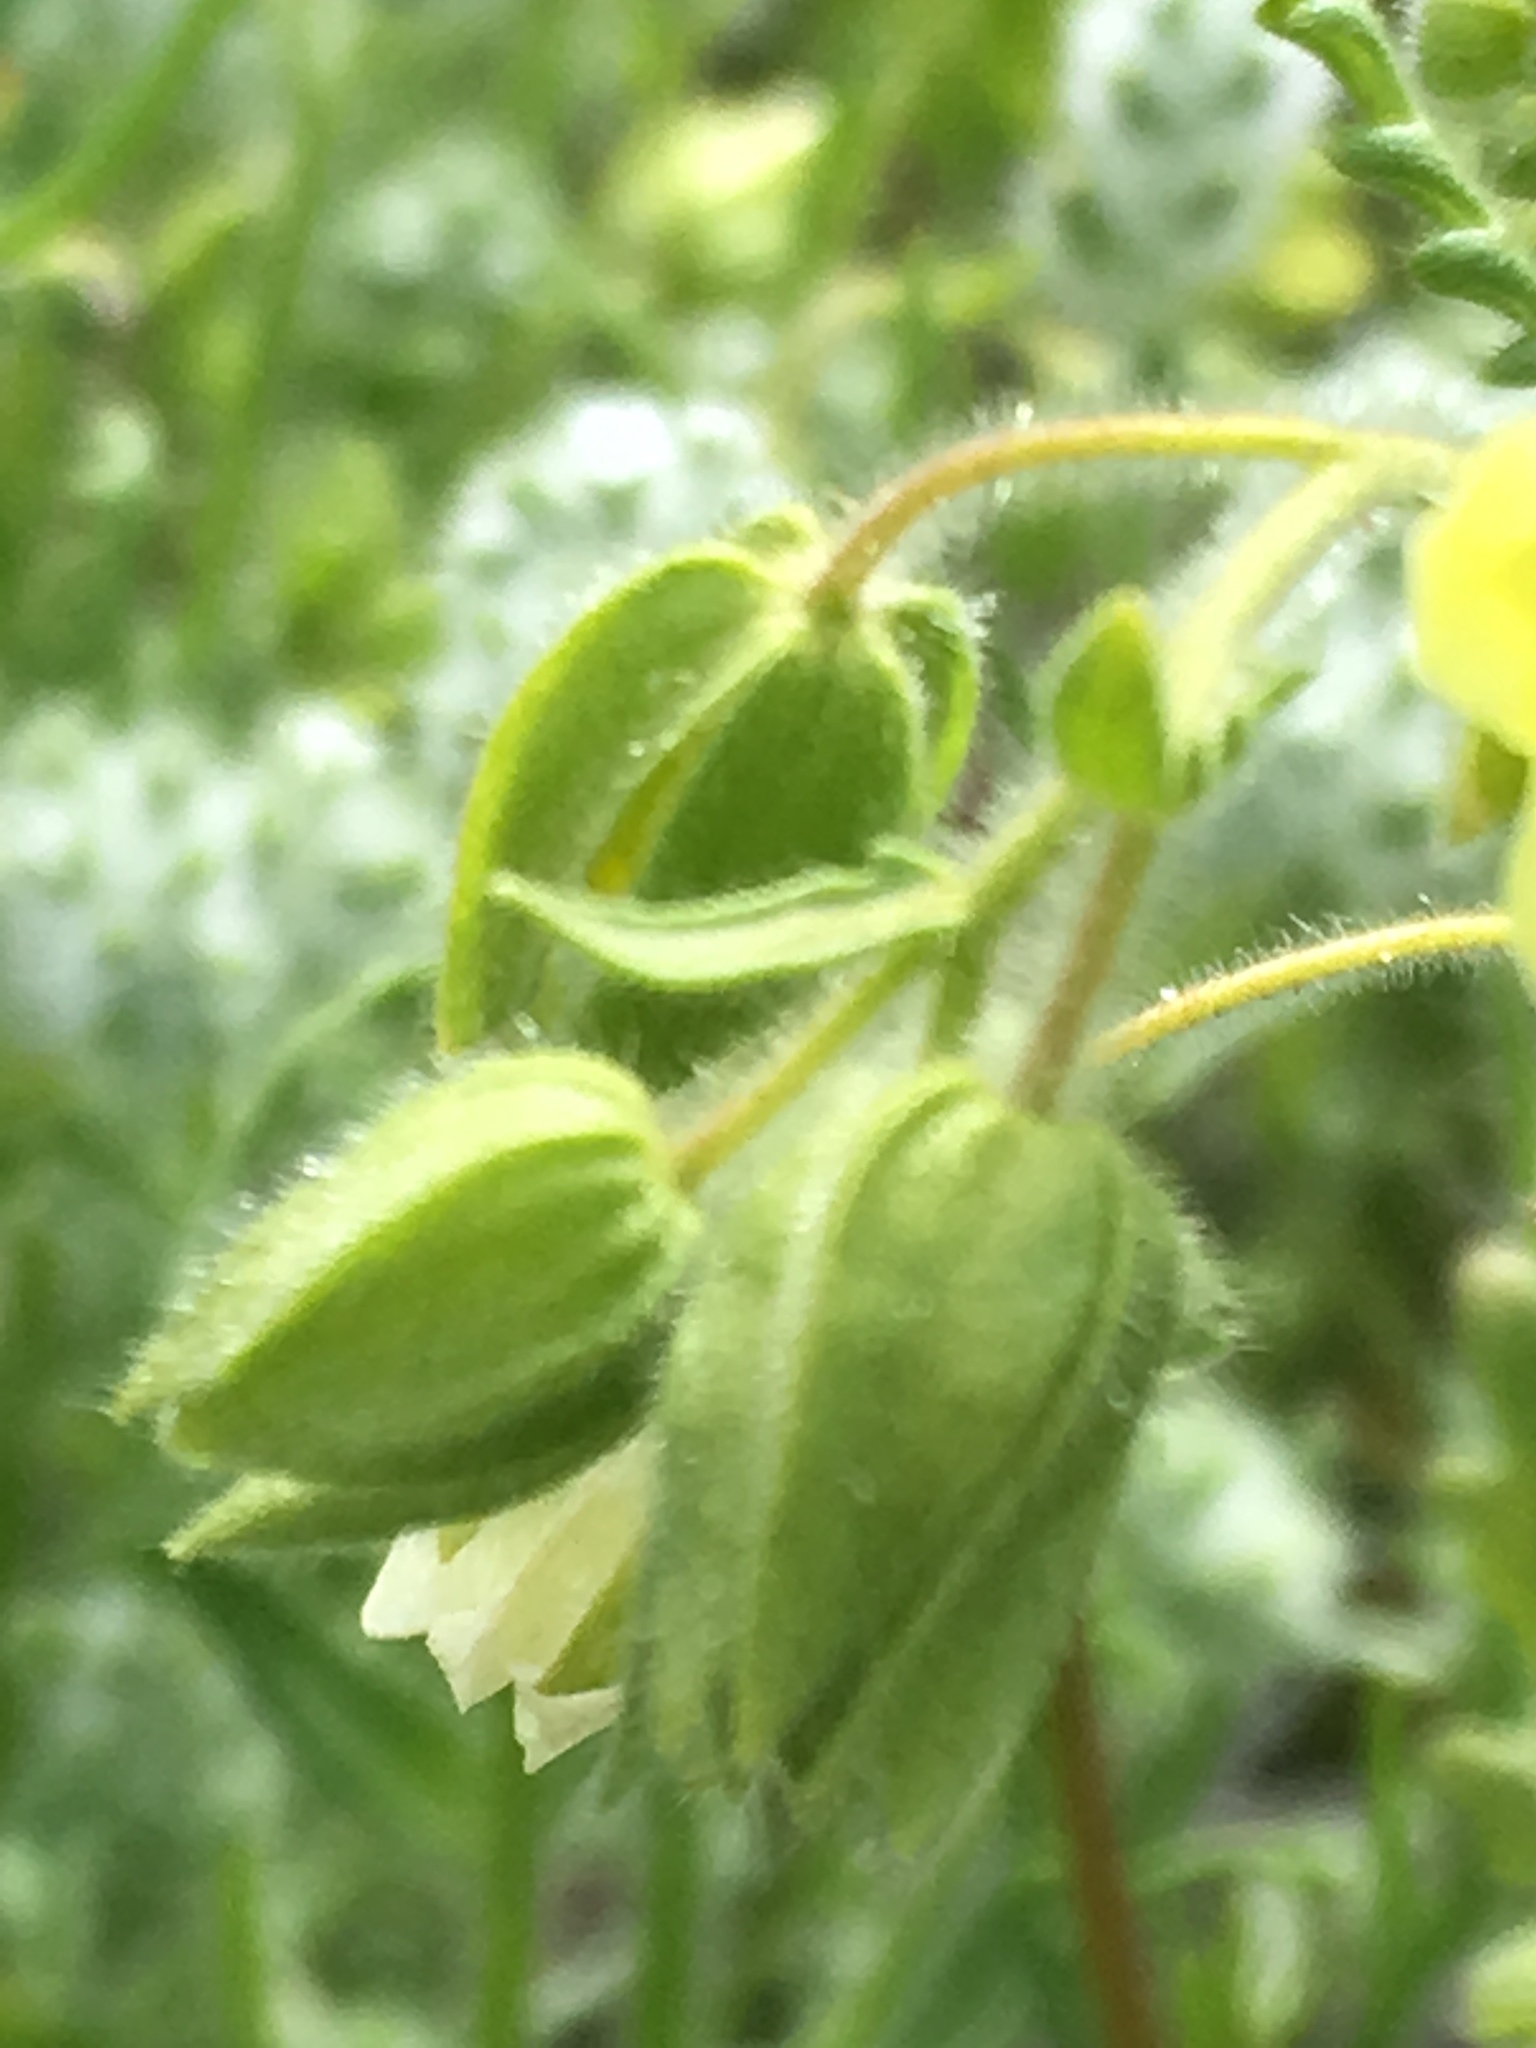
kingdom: Plantae
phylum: Tracheophyta
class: Magnoliopsida
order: Boraginales
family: Hydrophyllaceae
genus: Emmenanthe
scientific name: Emmenanthe penduliflora
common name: Whispering-bells
